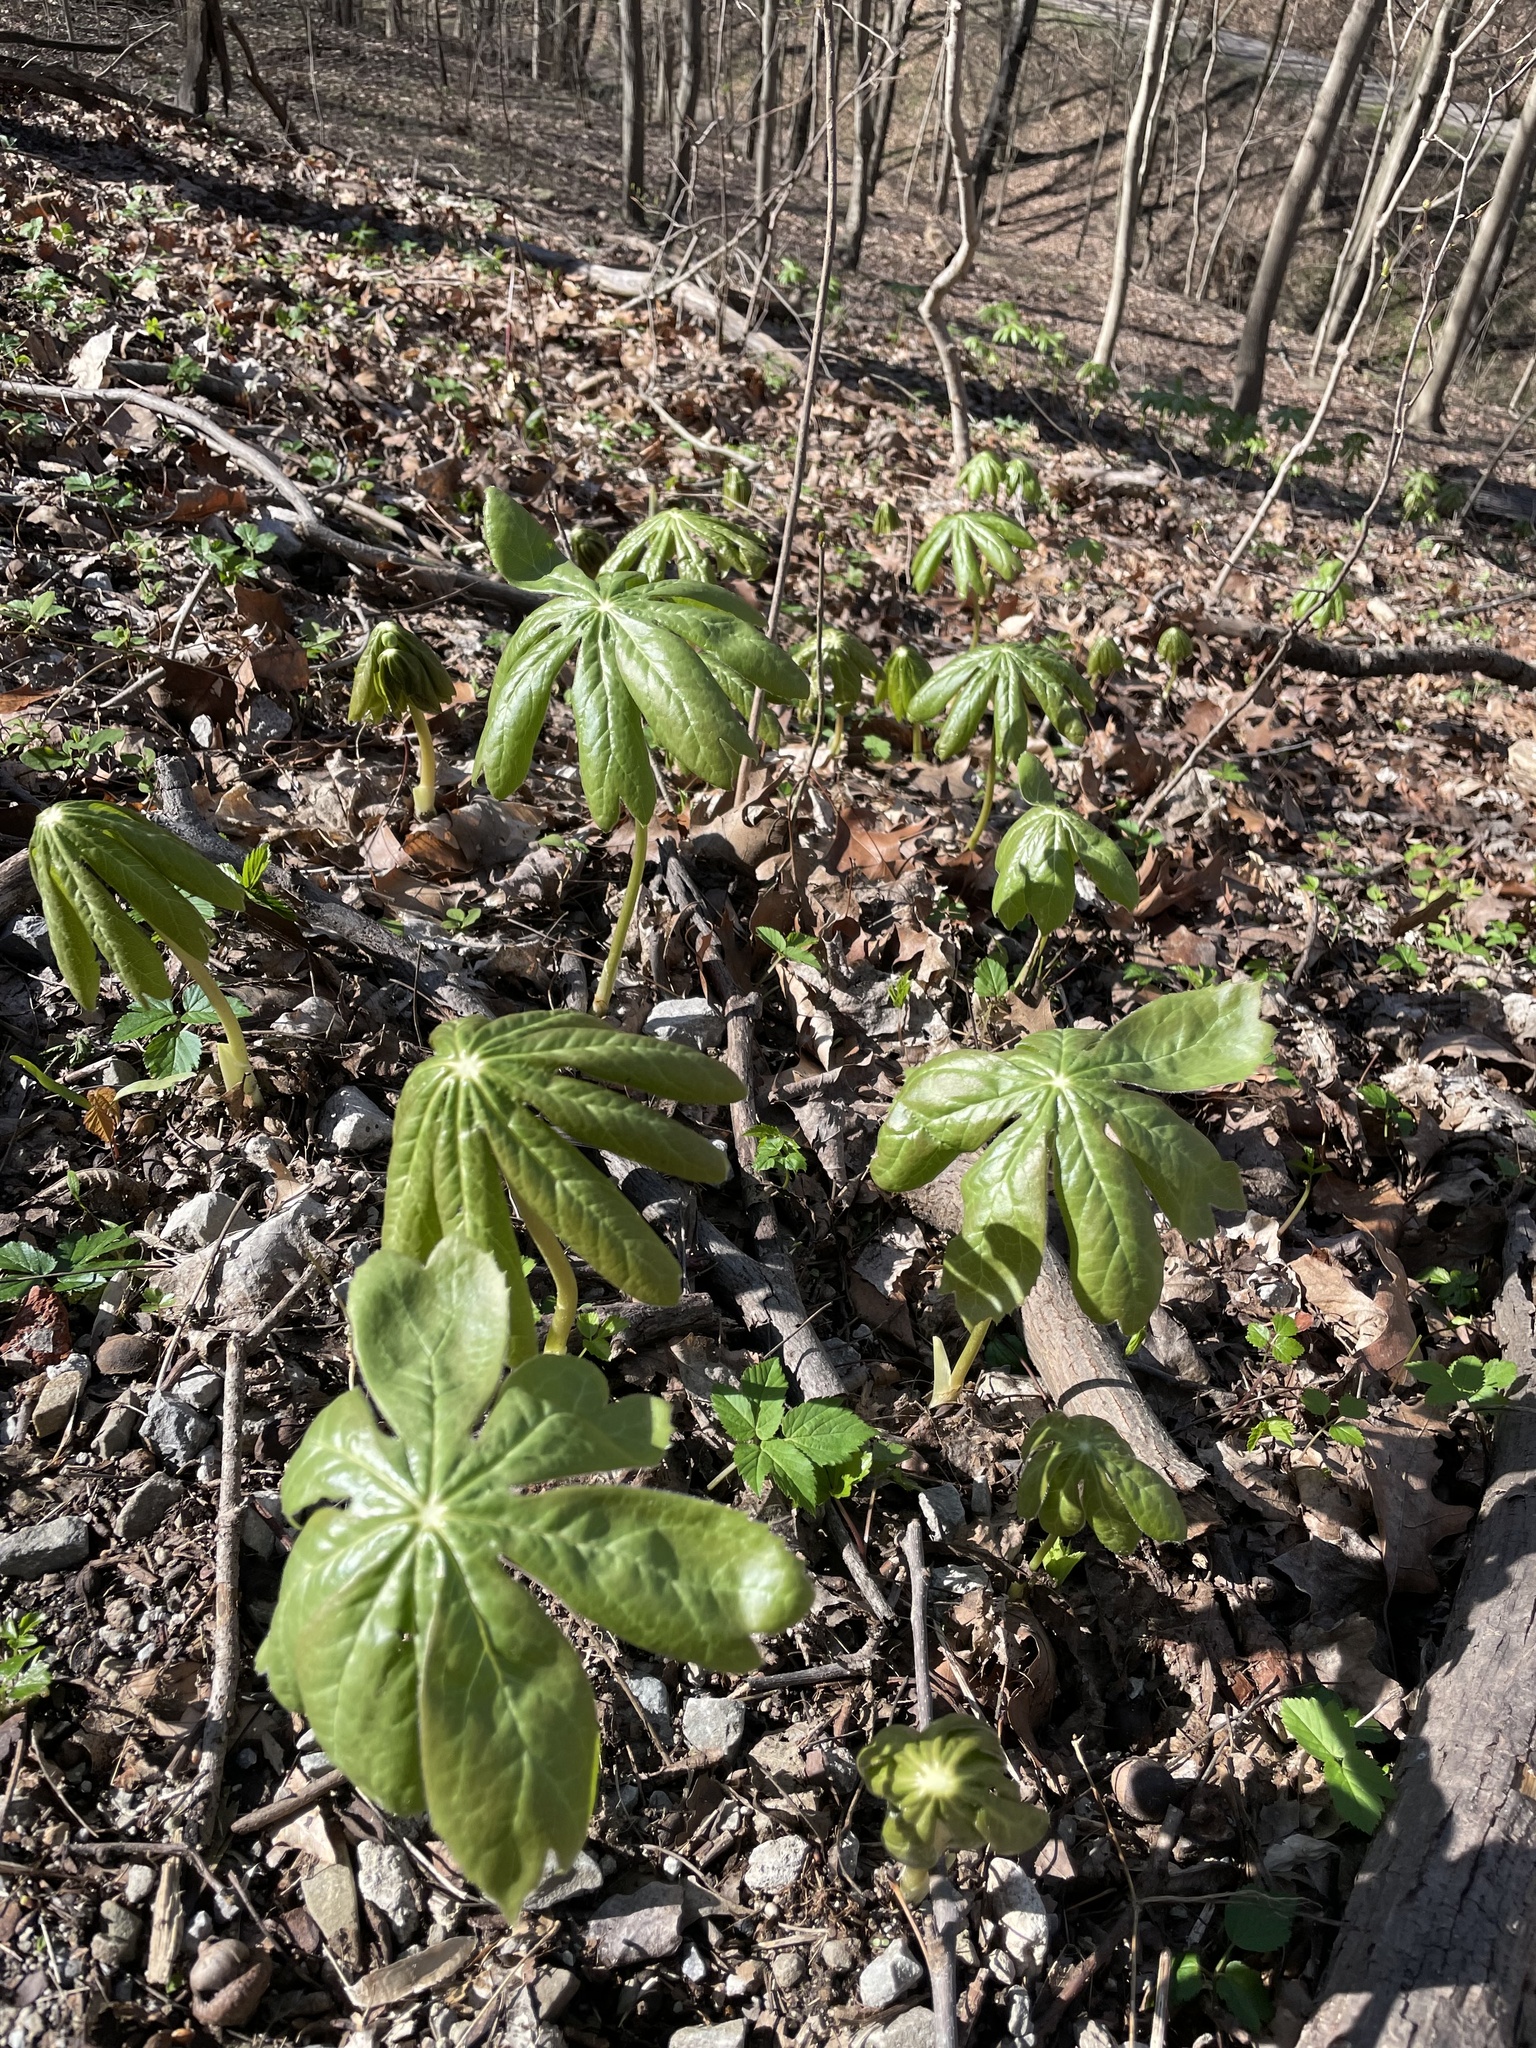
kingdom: Plantae
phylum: Tracheophyta
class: Magnoliopsida
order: Ranunculales
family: Berberidaceae
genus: Podophyllum
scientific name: Podophyllum peltatum
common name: Wild mandrake
